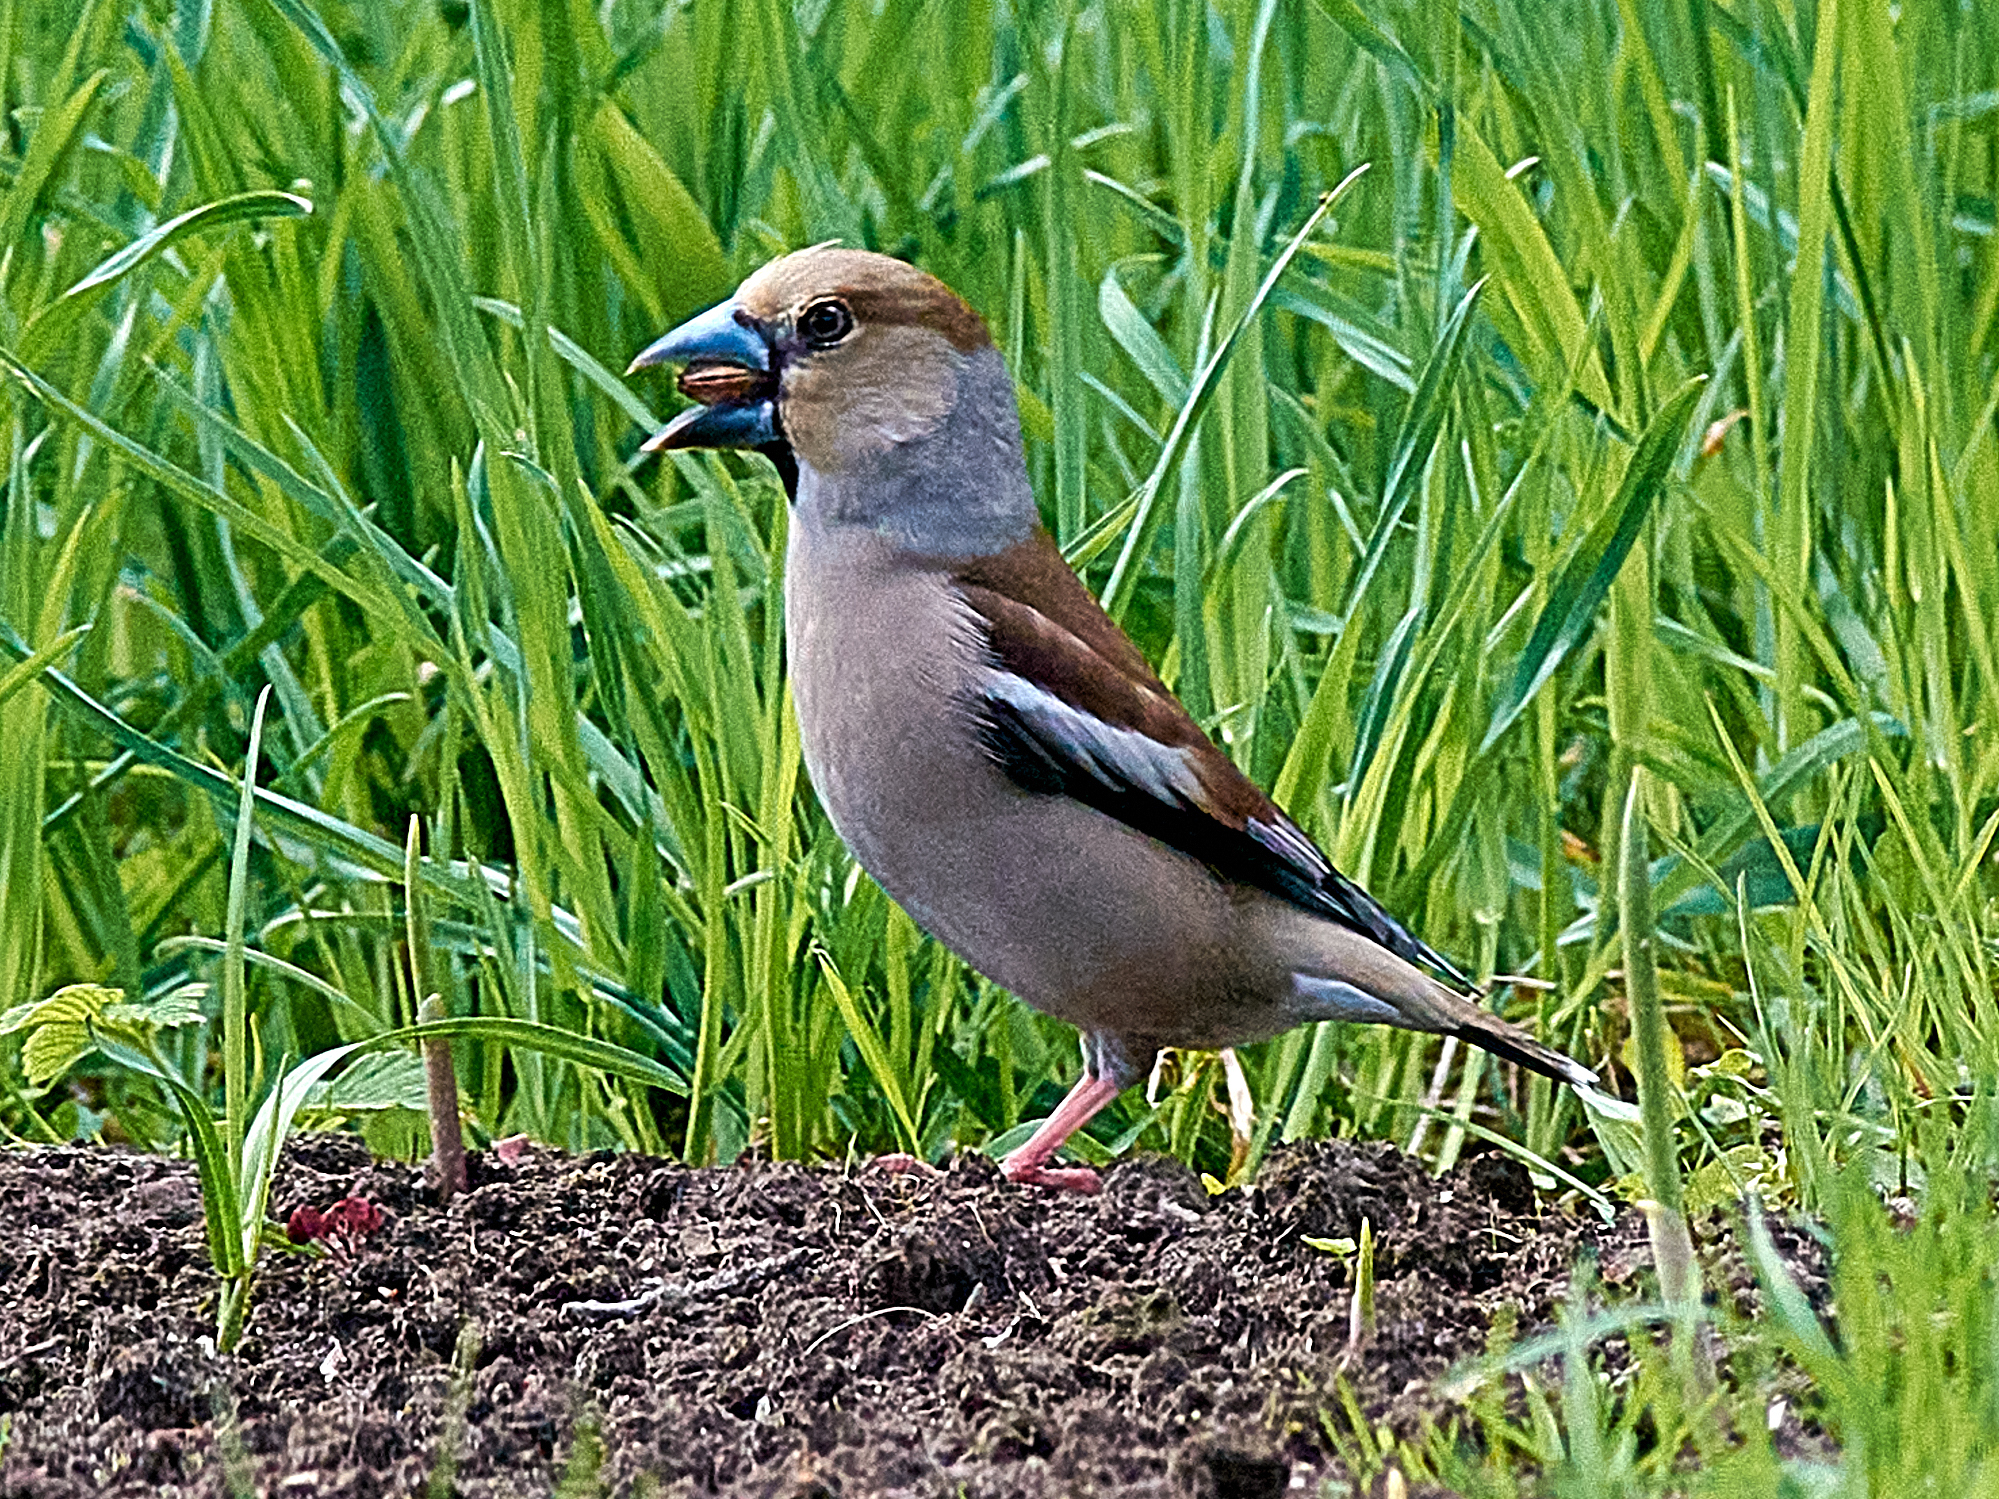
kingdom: Animalia
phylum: Chordata
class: Aves
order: Passeriformes
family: Fringillidae
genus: Coccothraustes
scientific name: Coccothraustes coccothraustes
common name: Hawfinch
